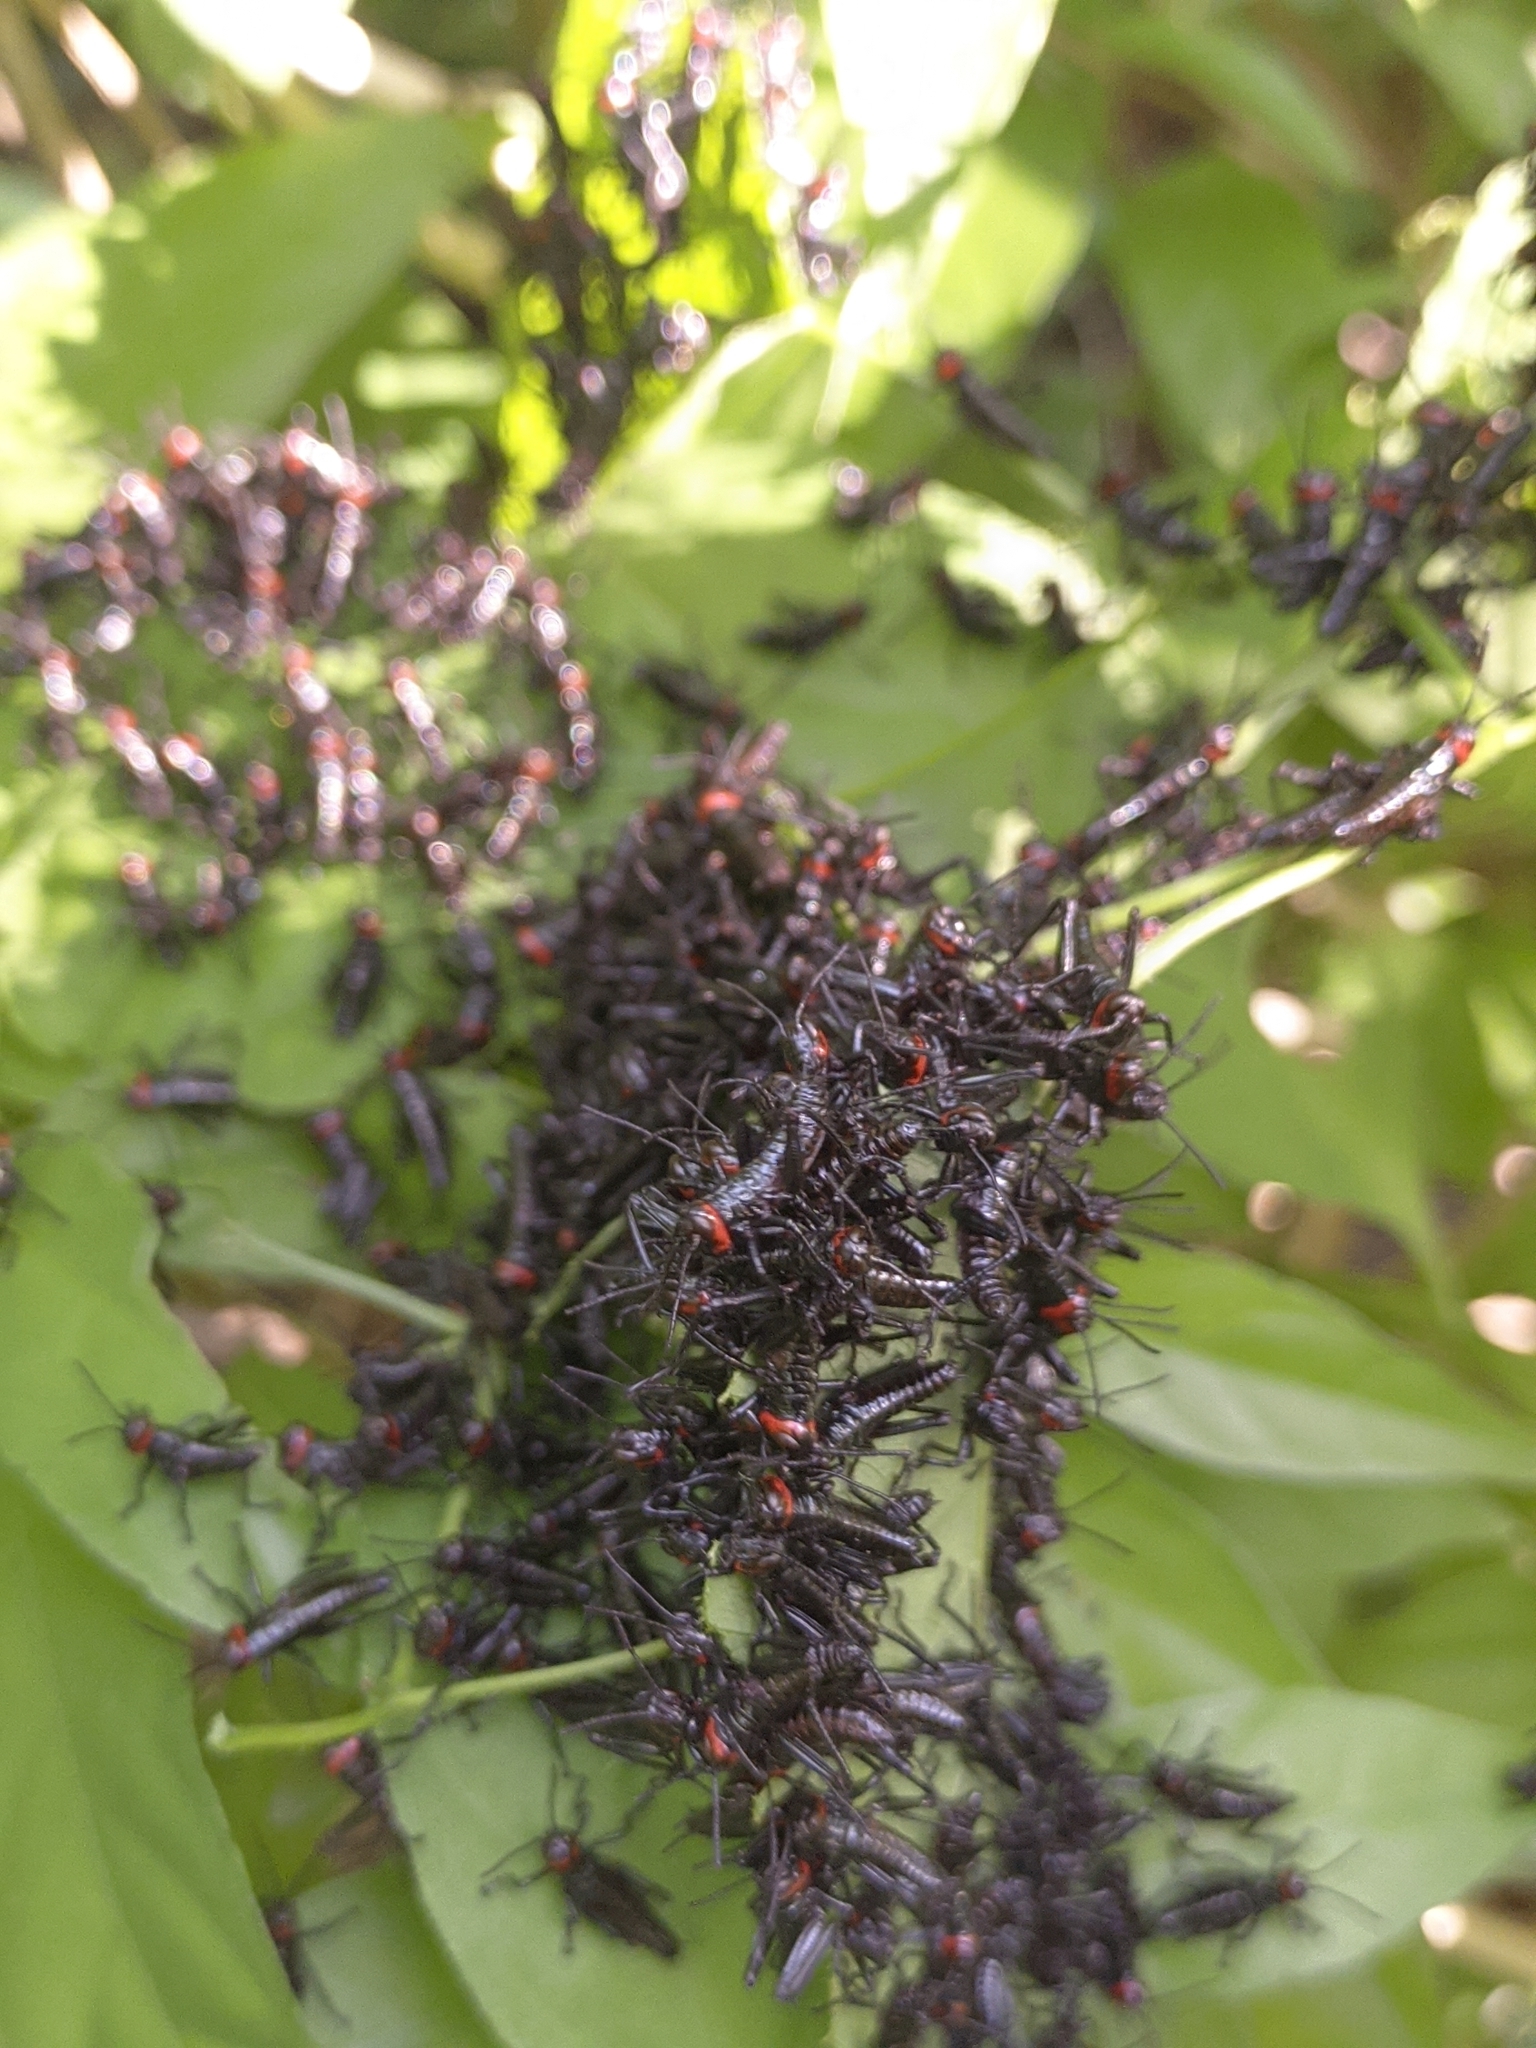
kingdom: Animalia
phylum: Arthropoda
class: Insecta
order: Orthoptera
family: Romaleidae
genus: Chromacris
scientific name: Chromacris speciosa
